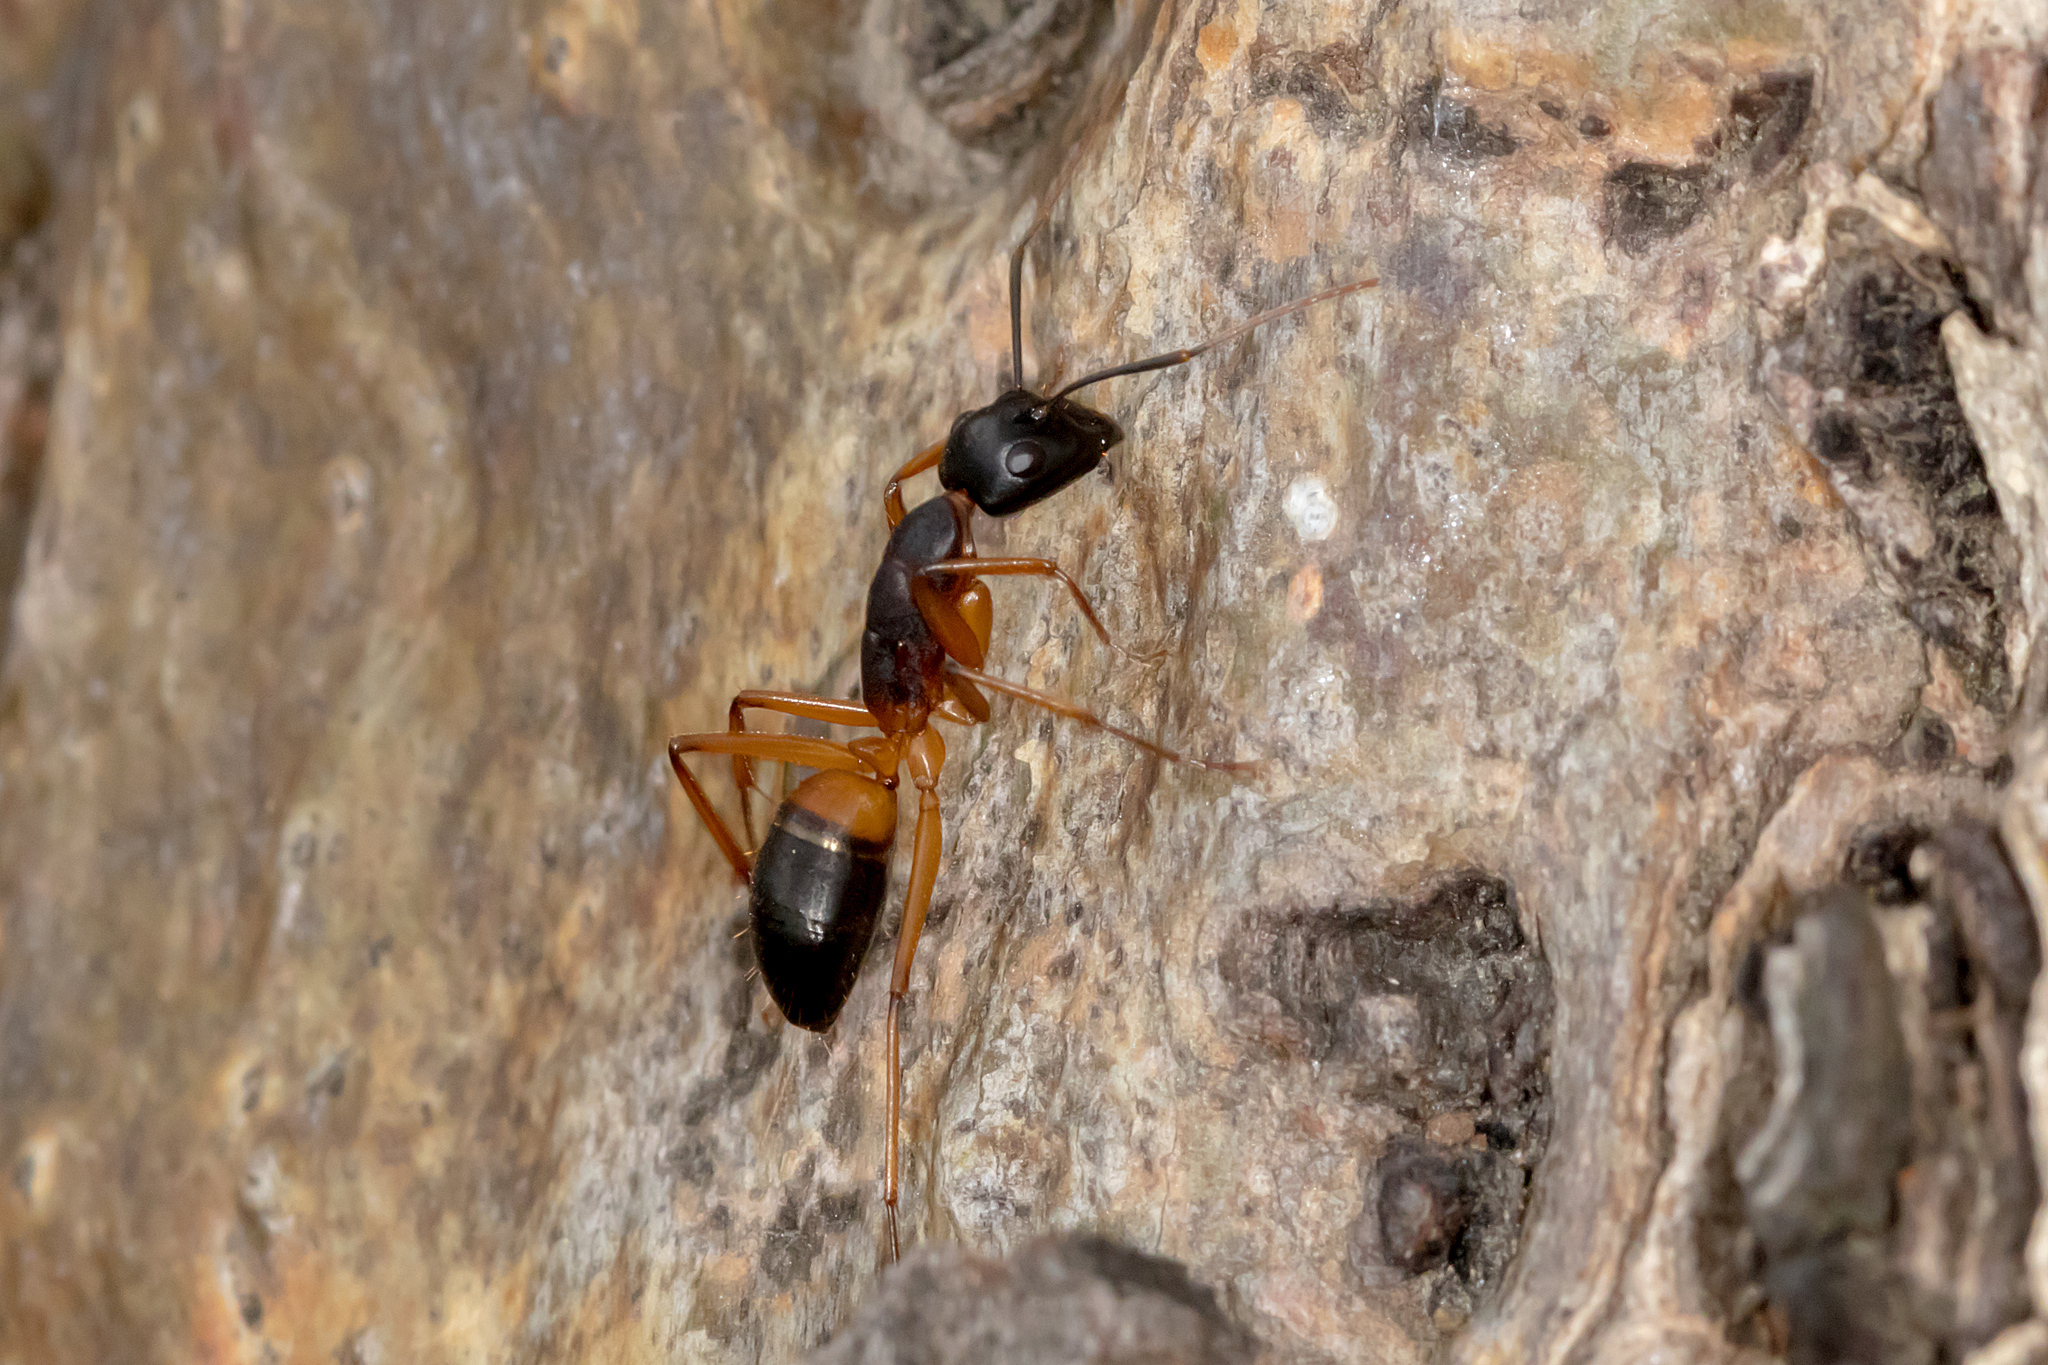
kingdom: Animalia
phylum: Arthropoda
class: Insecta
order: Hymenoptera
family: Formicidae
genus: Camponotus
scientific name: Camponotus consobrinus
